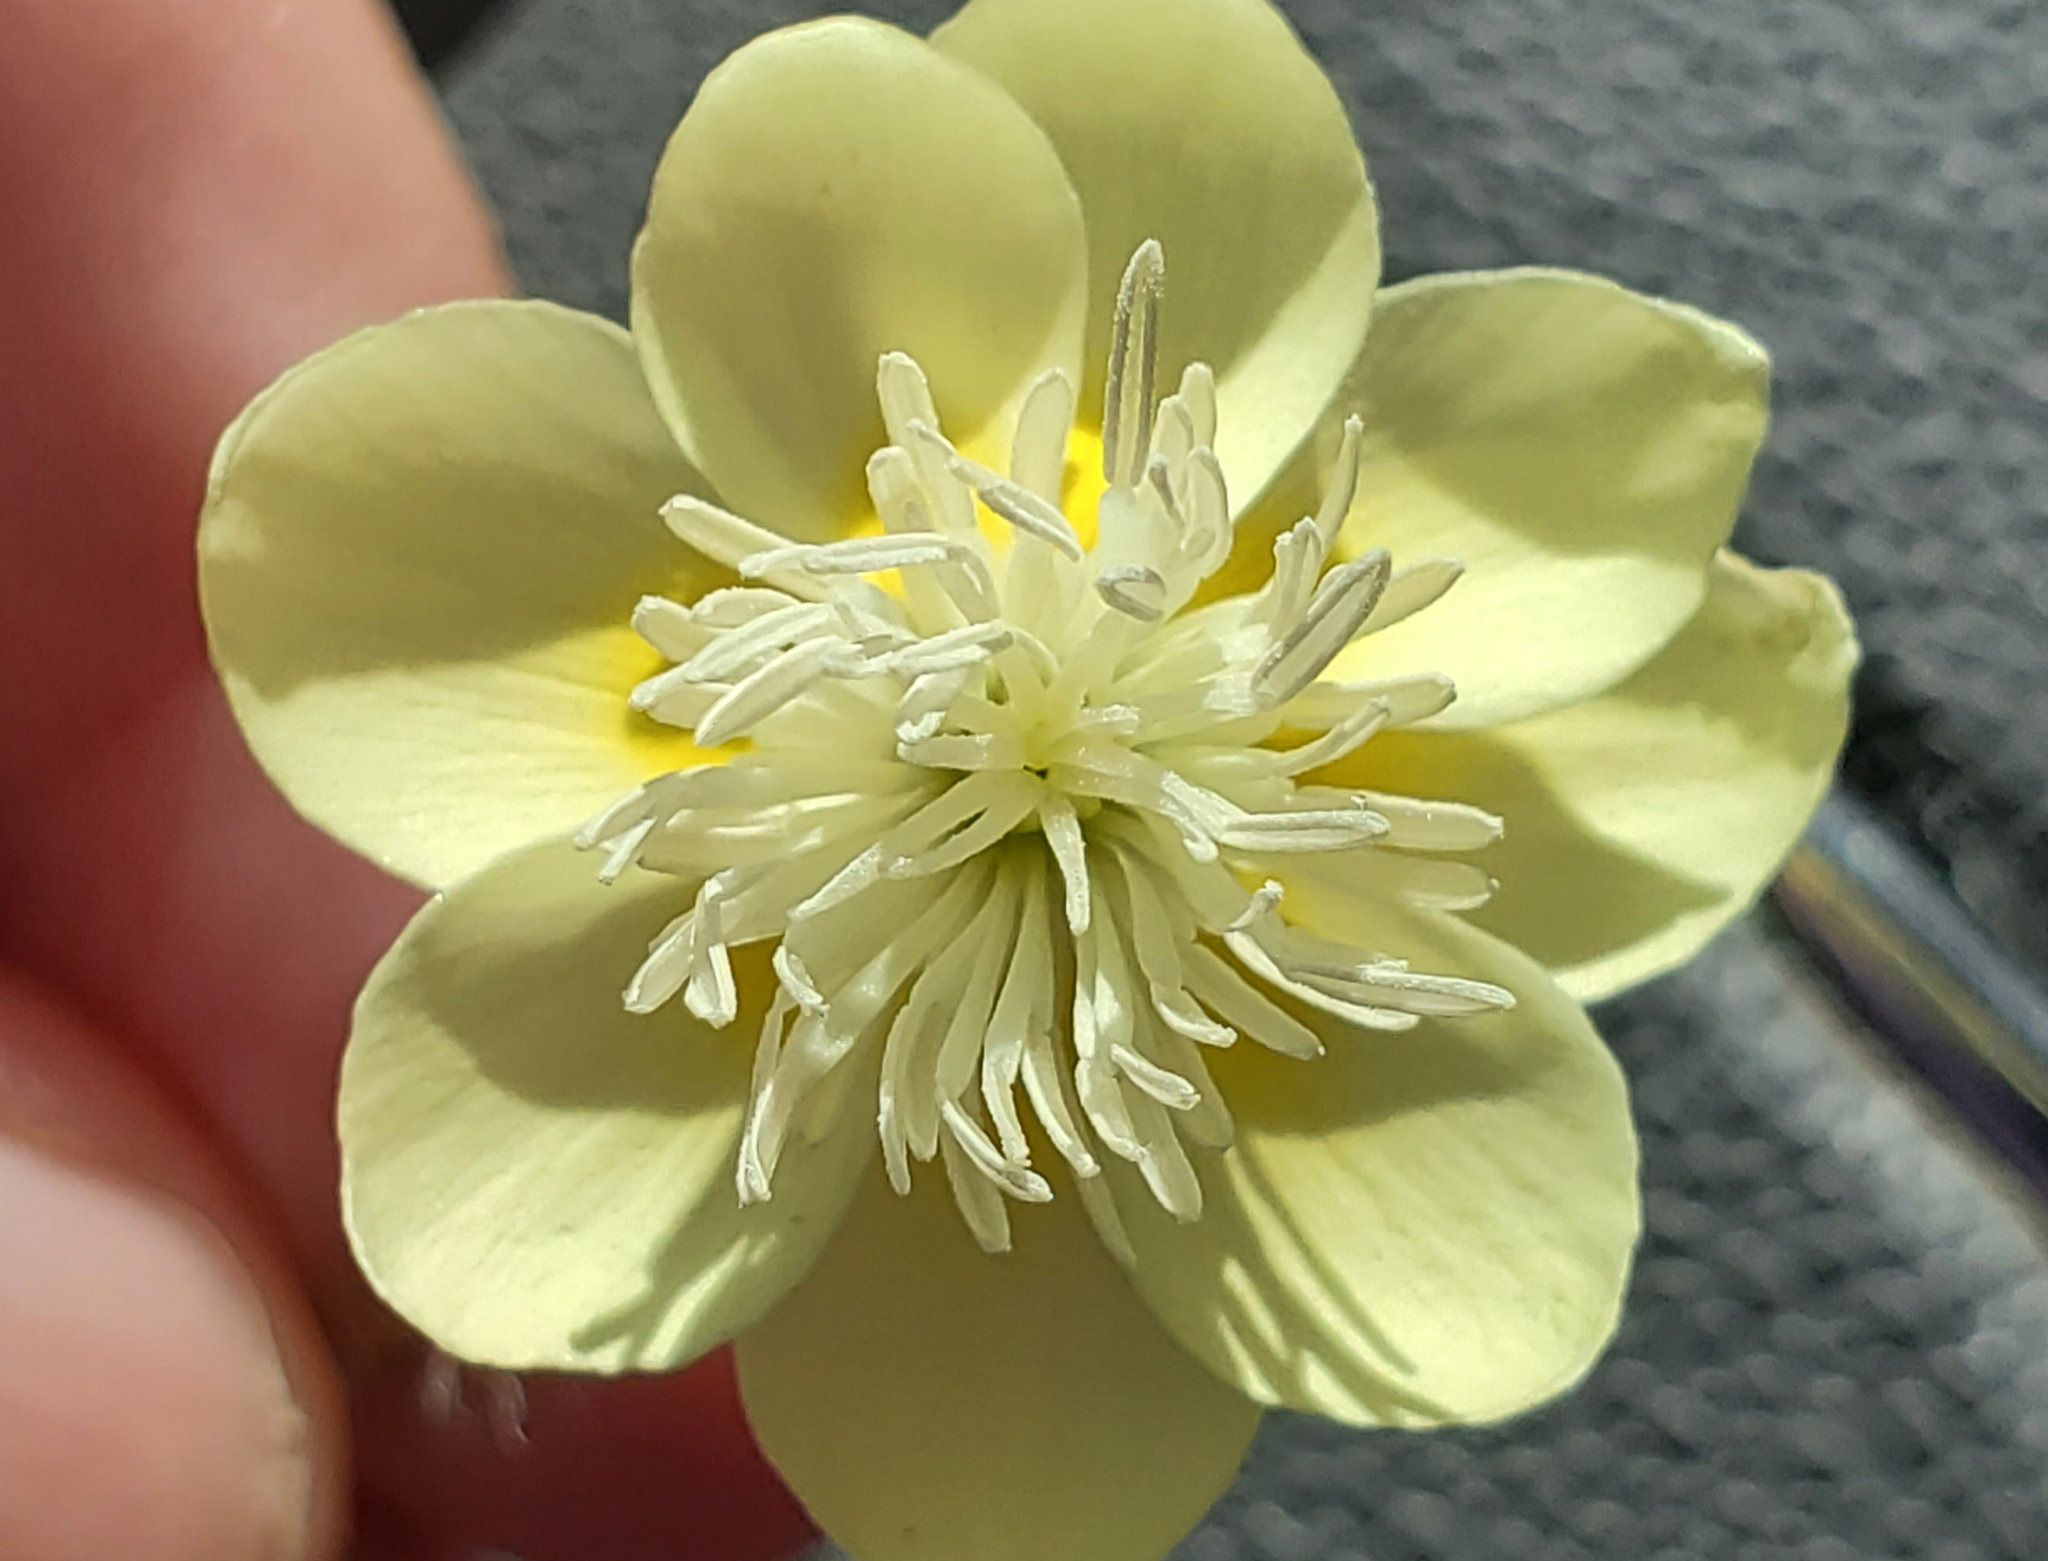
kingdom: Plantae
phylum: Tracheophyta
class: Magnoliopsida
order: Ranunculales
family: Papaveraceae
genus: Platystemon
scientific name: Platystemon californicus
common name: Cream-cups
